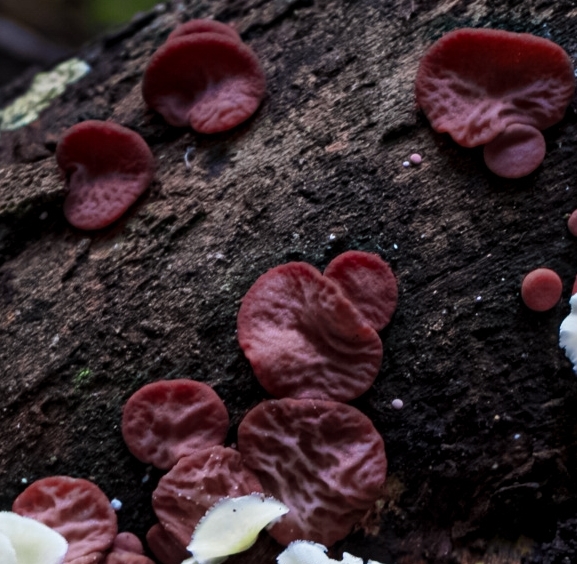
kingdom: Fungi
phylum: Basidiomycota
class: Agaricomycetes
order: Auriculariales
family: Auriculariaceae
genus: Auricularia
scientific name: Auricularia delicata
